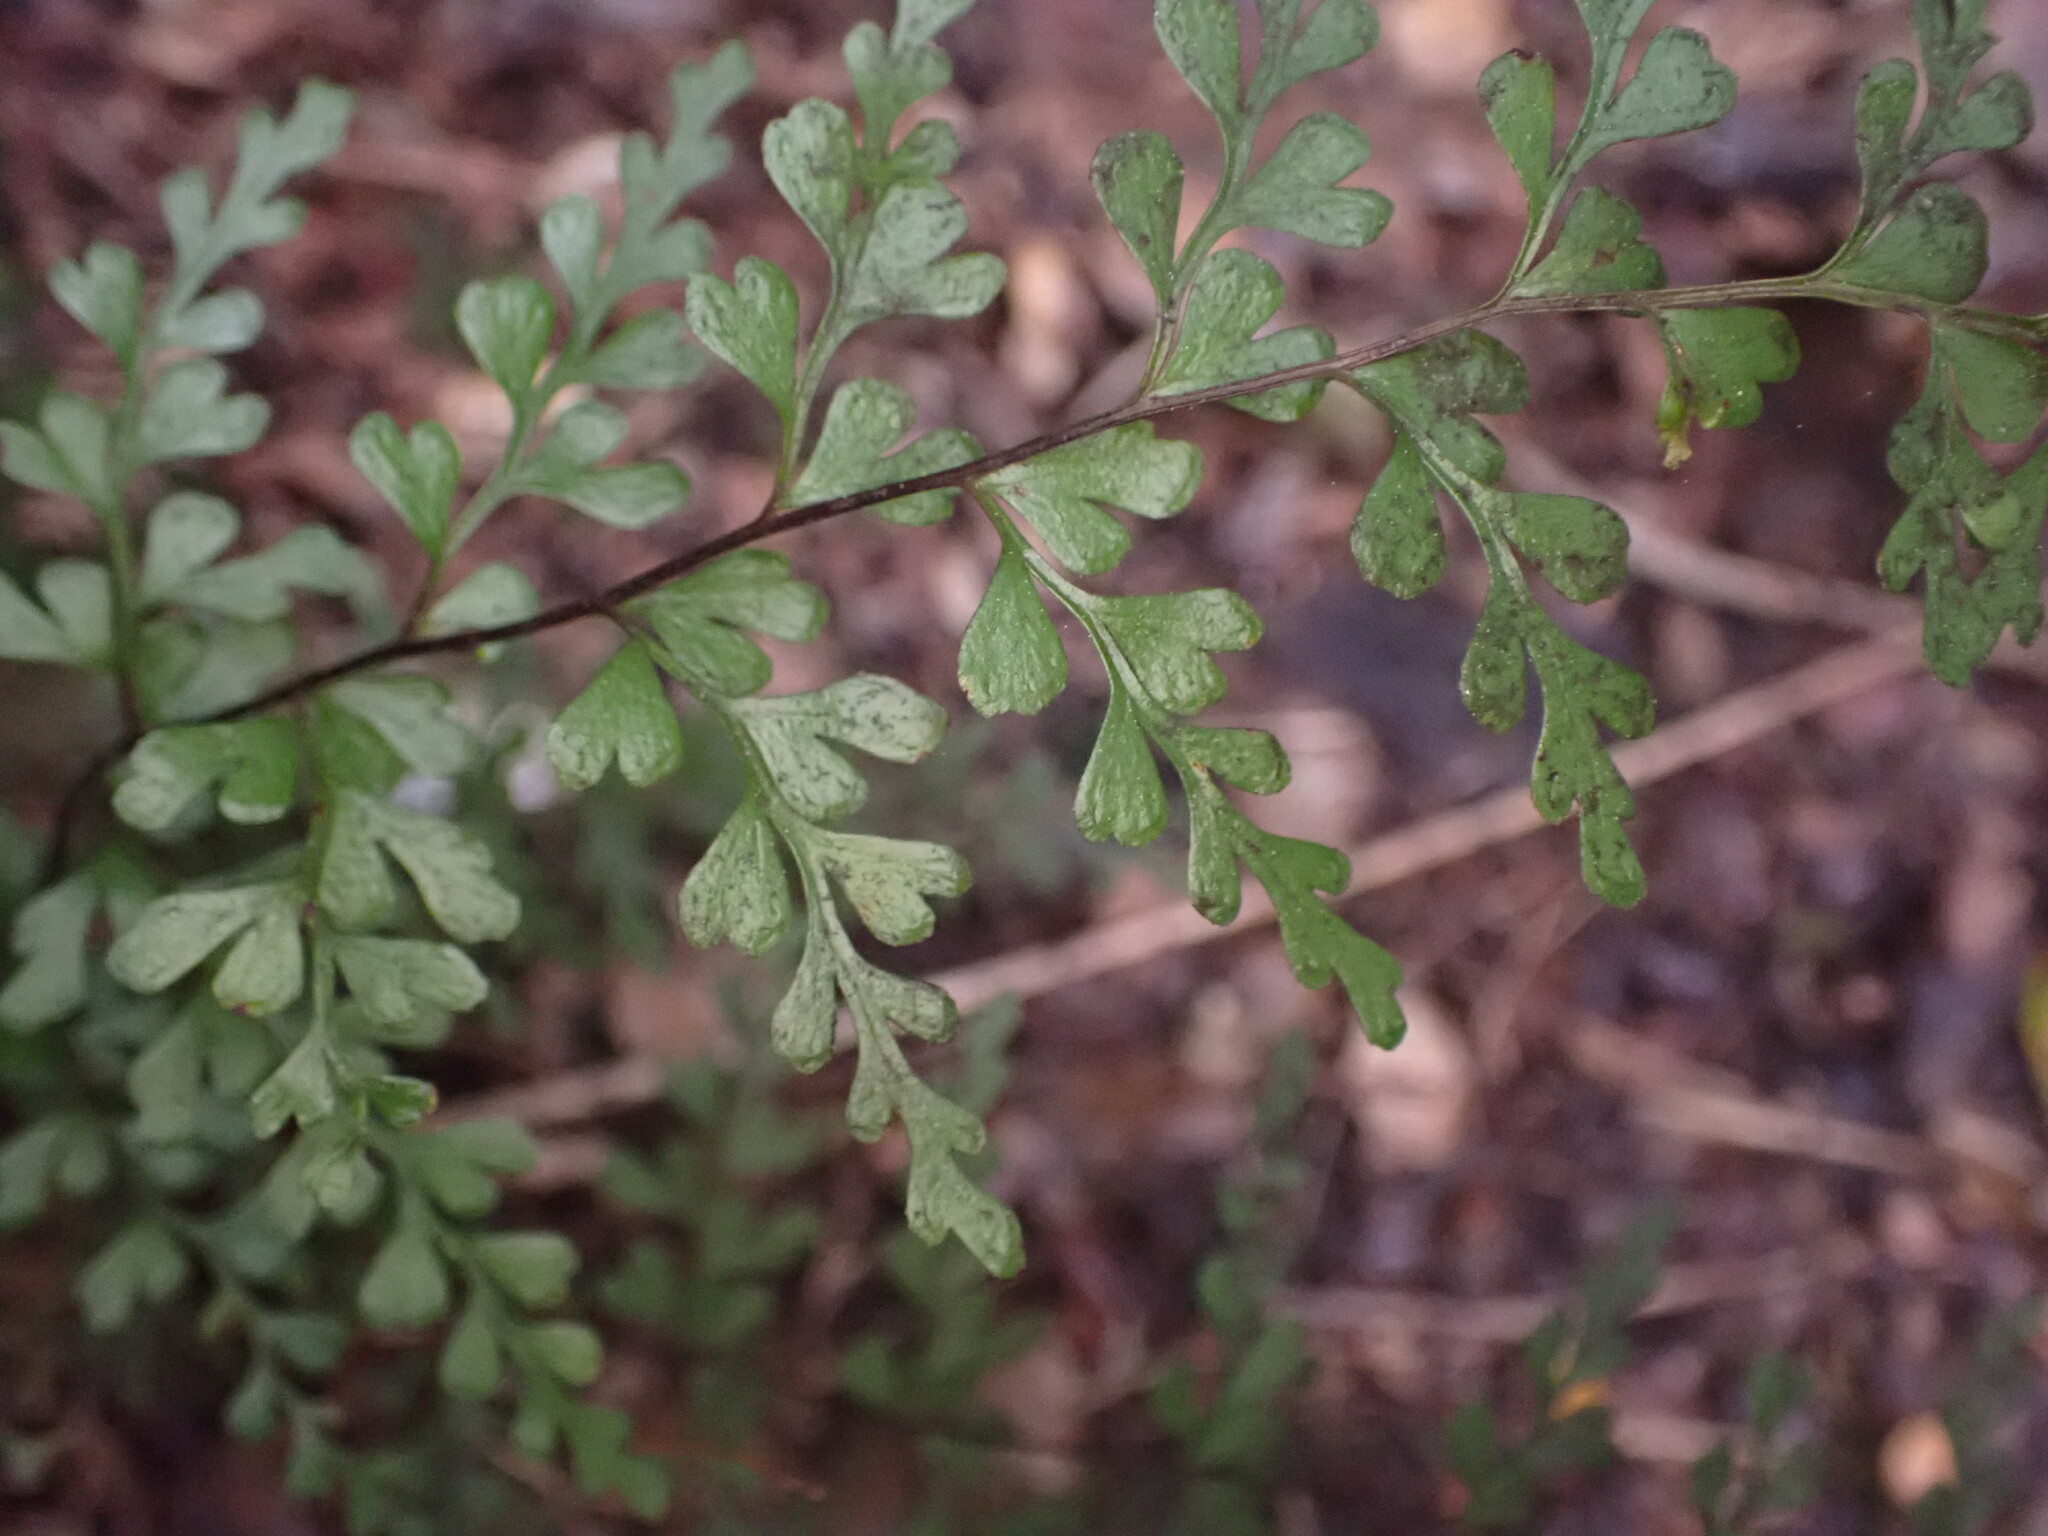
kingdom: Plantae
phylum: Tracheophyta
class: Polypodiopsida
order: Polypodiales
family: Lindsaeaceae
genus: Lindsaea
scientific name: Lindsaea trichomanoides
